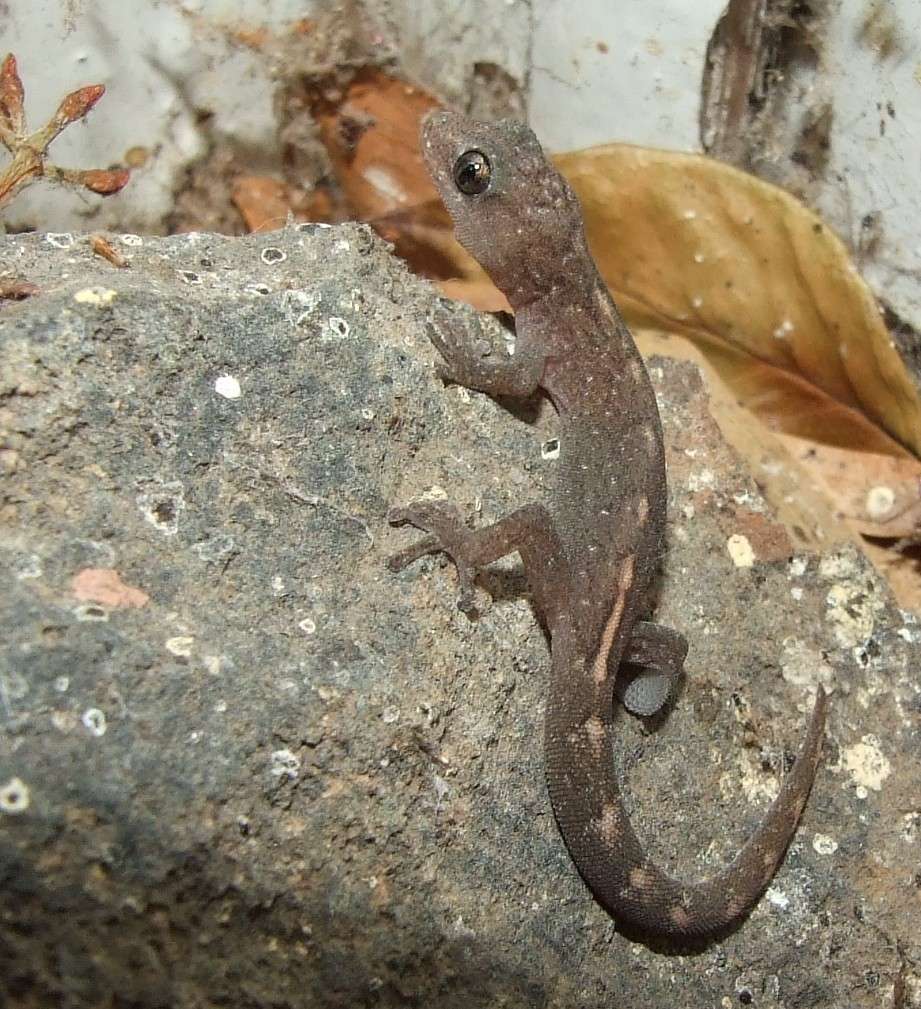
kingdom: Animalia
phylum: Chordata
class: Squamata
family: Gekkonidae
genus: Christinus
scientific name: Christinus marmoratus
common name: Marbled gecko
